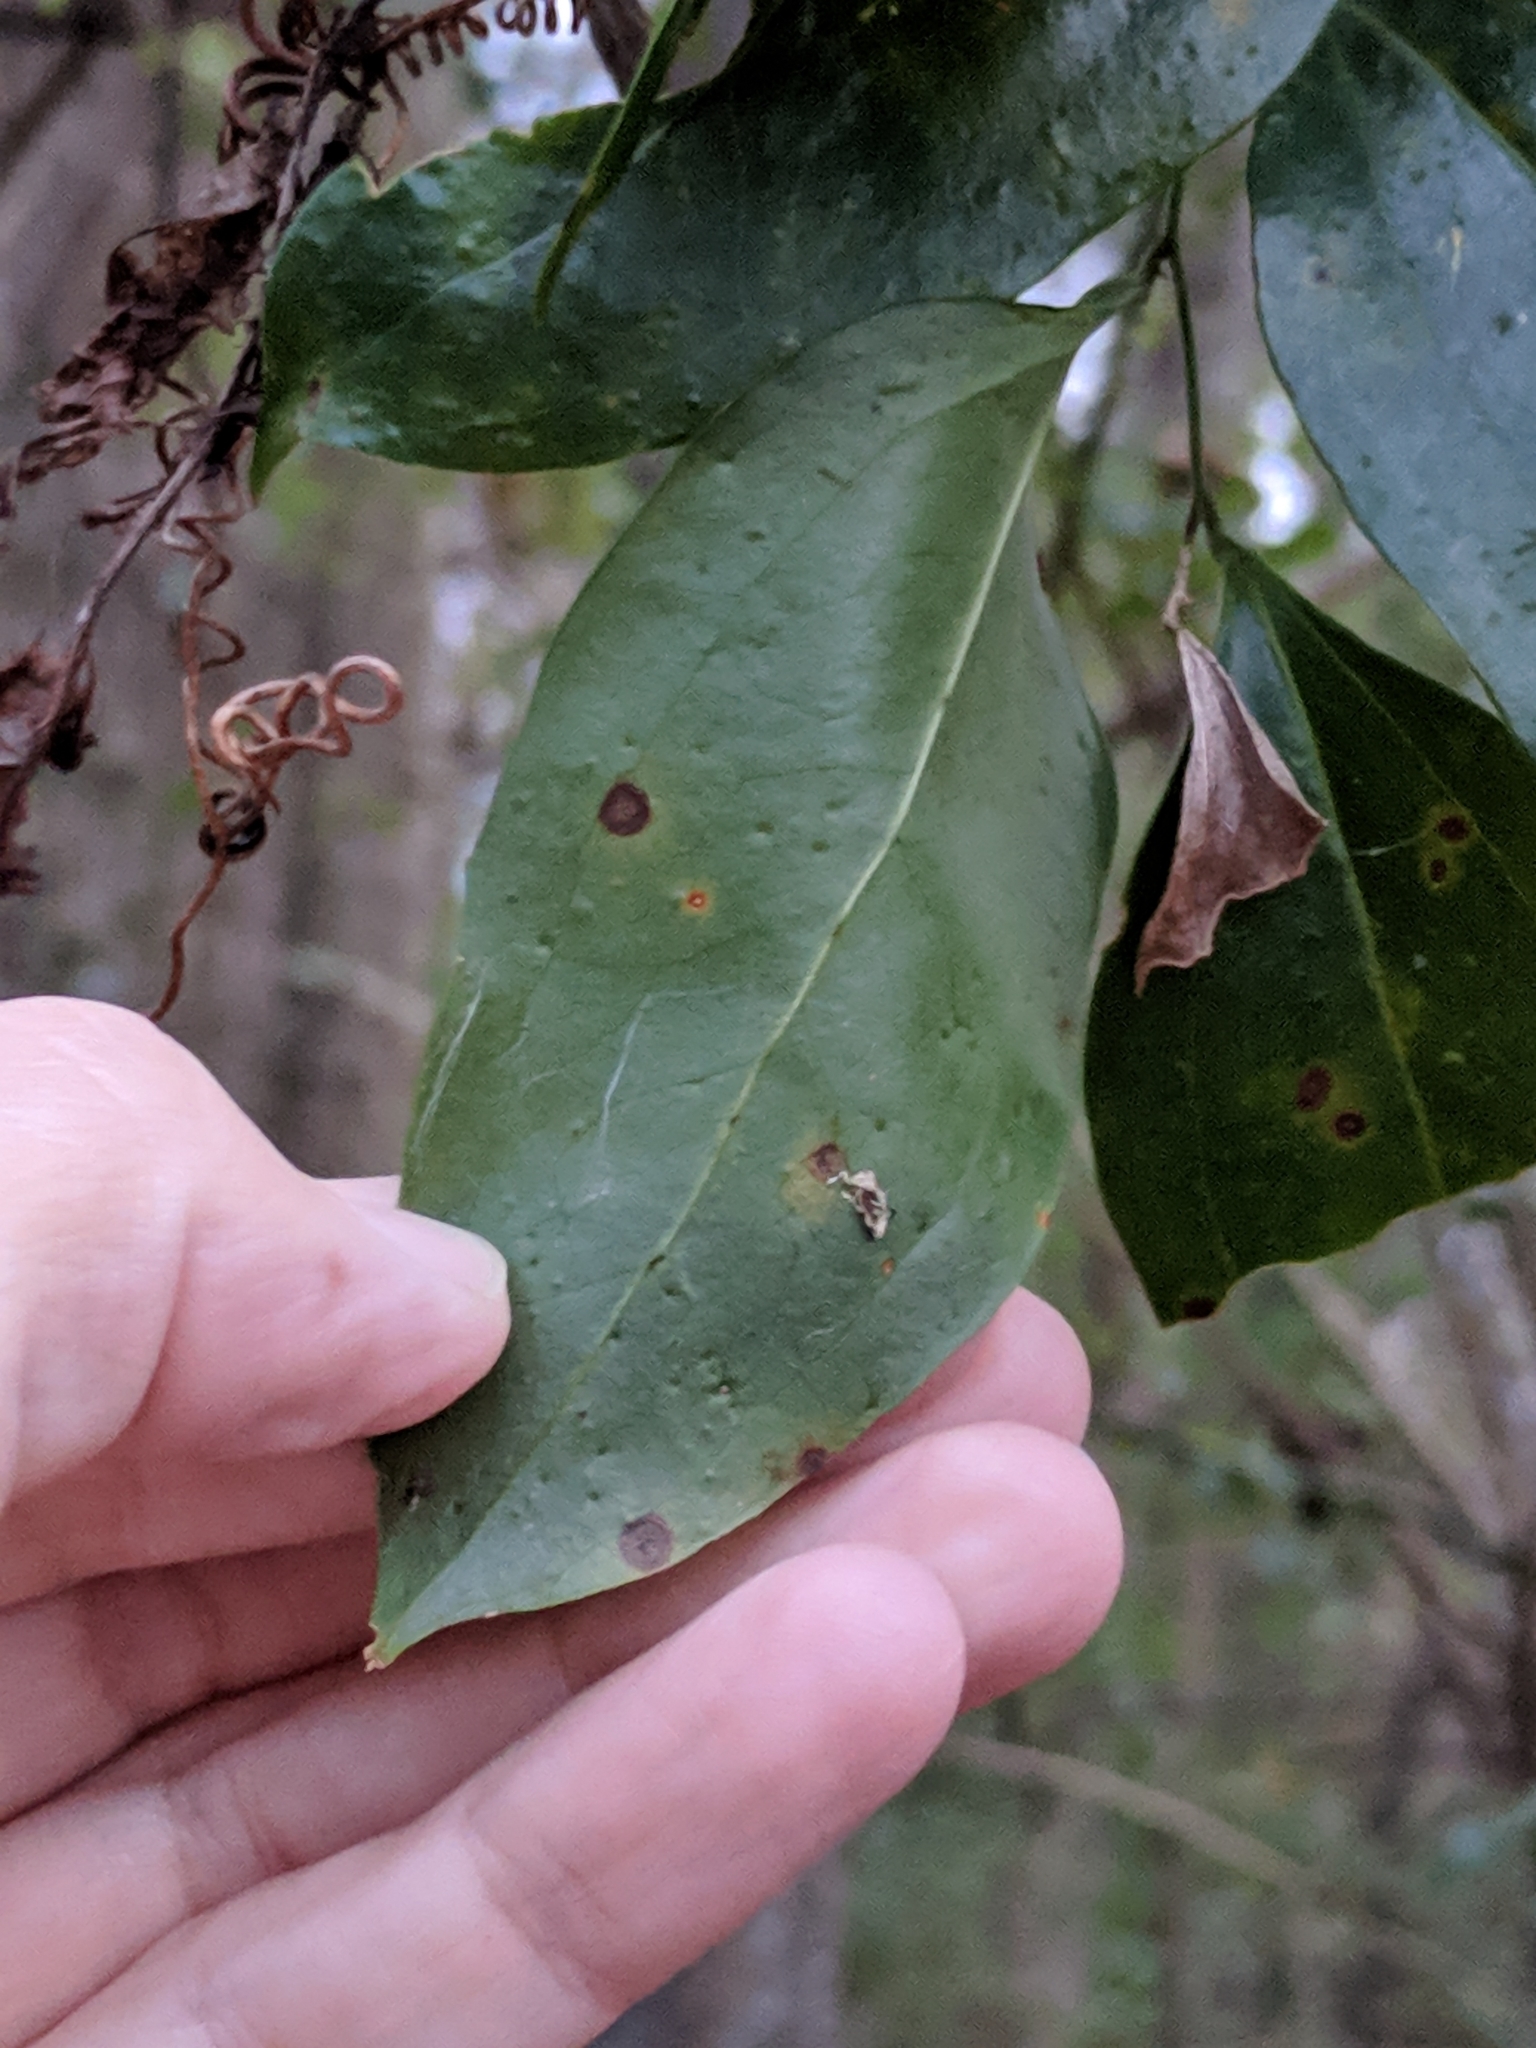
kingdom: Plantae
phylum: Tracheophyta
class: Liliopsida
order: Liliales
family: Smilacaceae
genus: Smilax
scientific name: Smilax maritima
